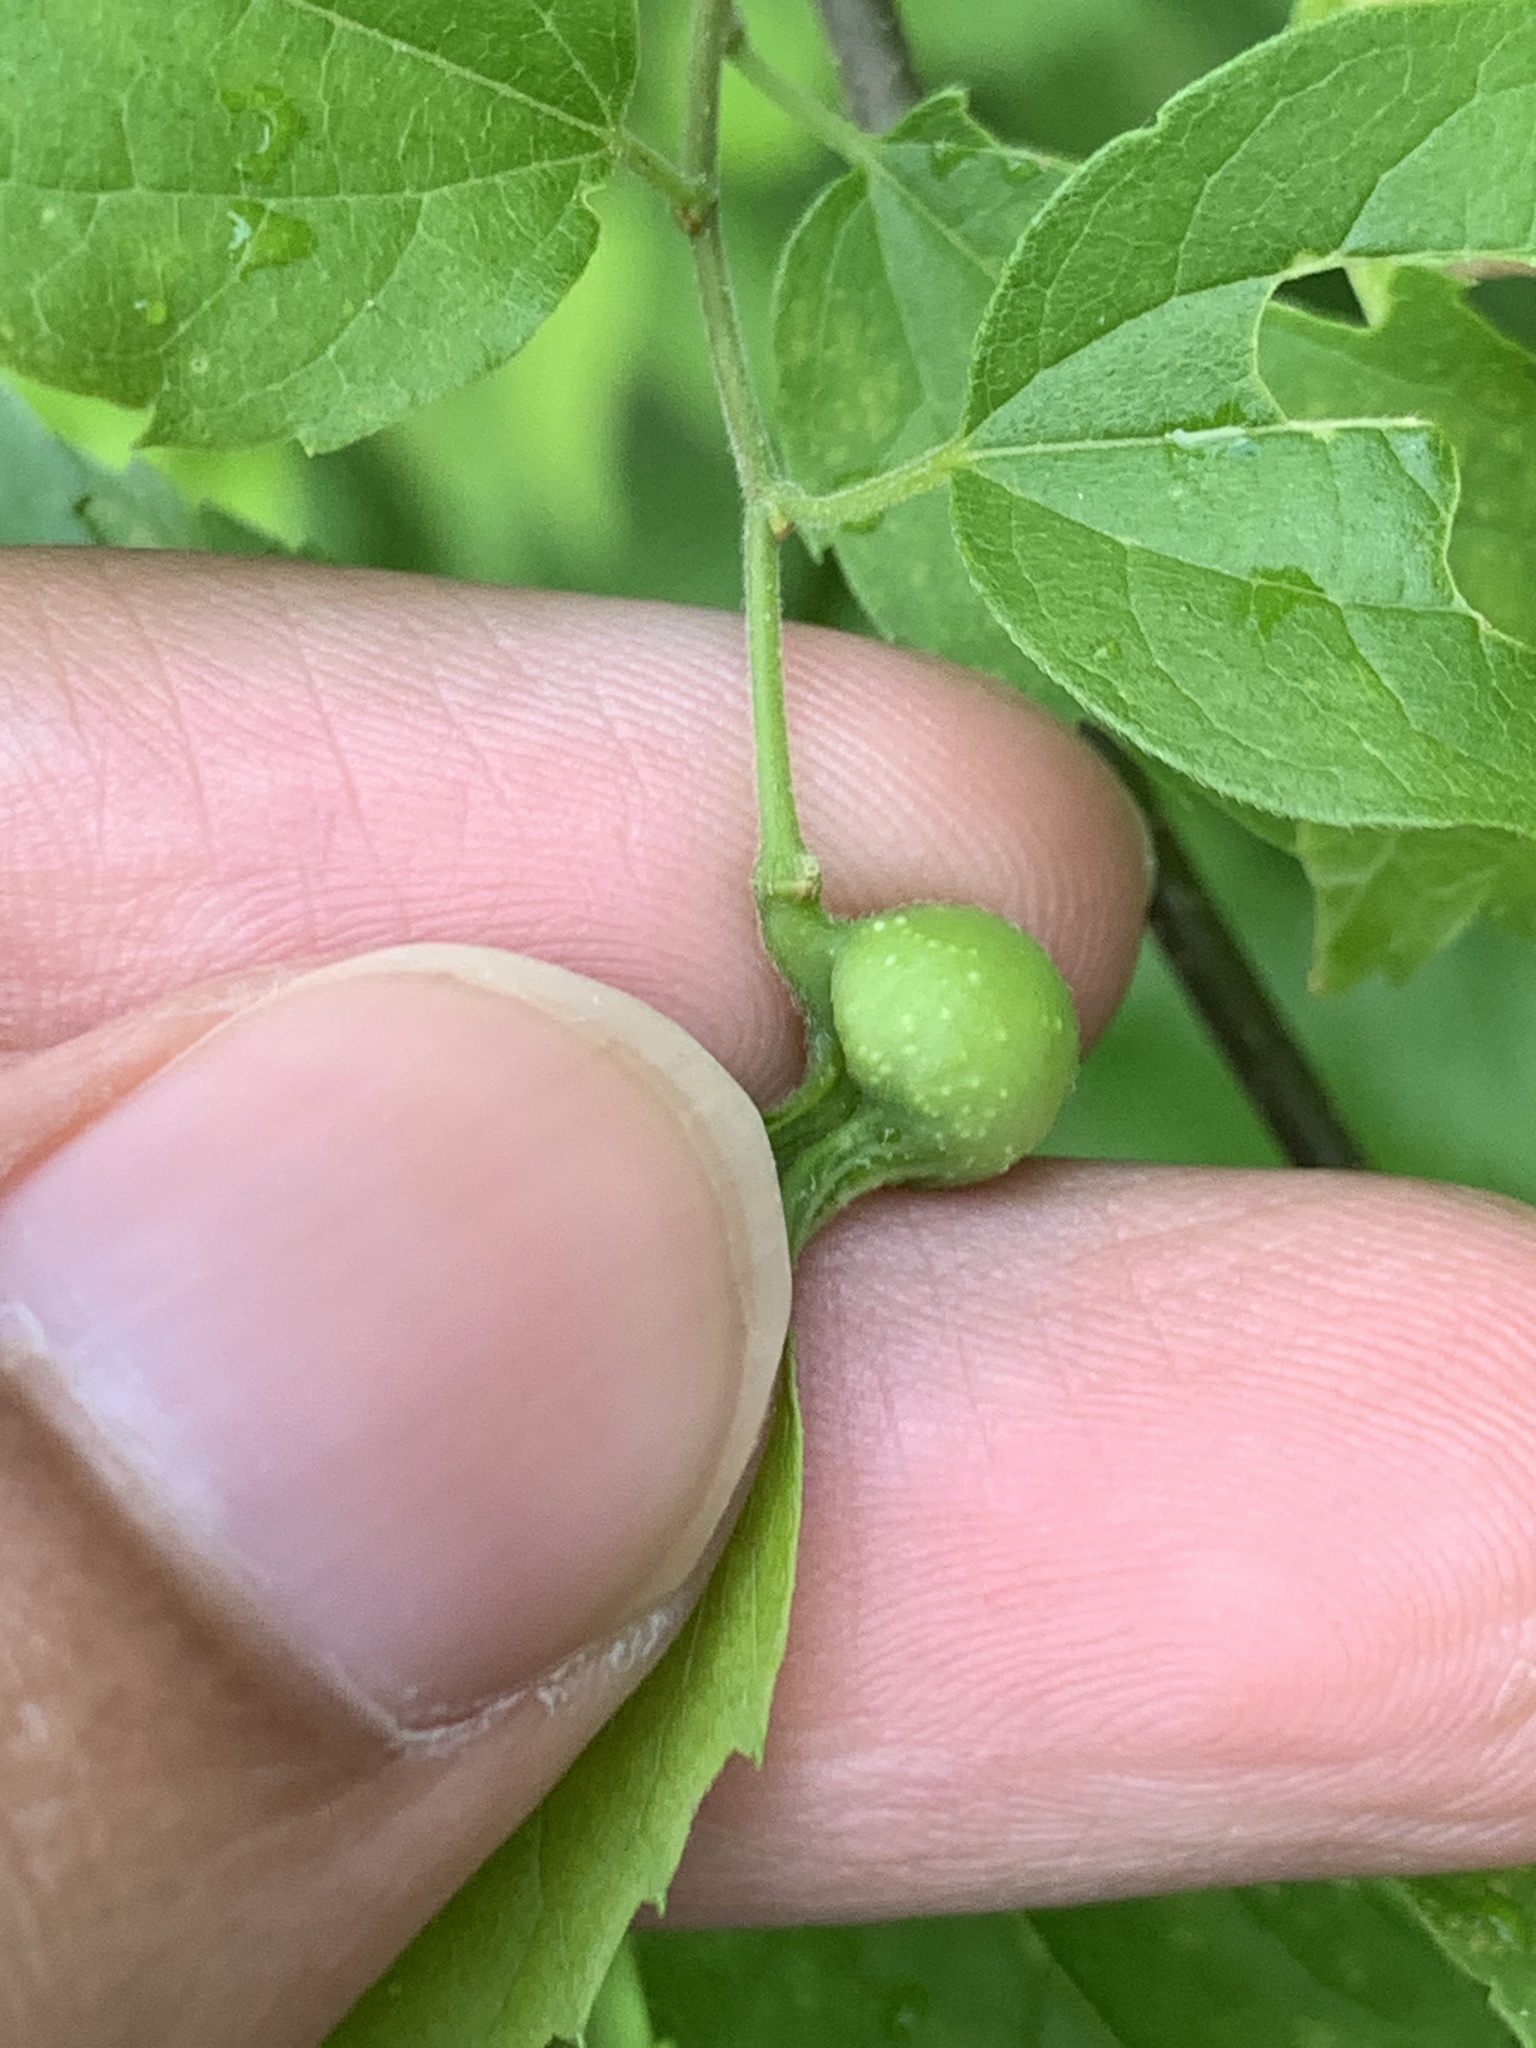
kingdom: Animalia
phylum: Arthropoda
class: Insecta
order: Hemiptera
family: Aphalaridae
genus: Pachypsylla
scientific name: Pachypsylla venusta
